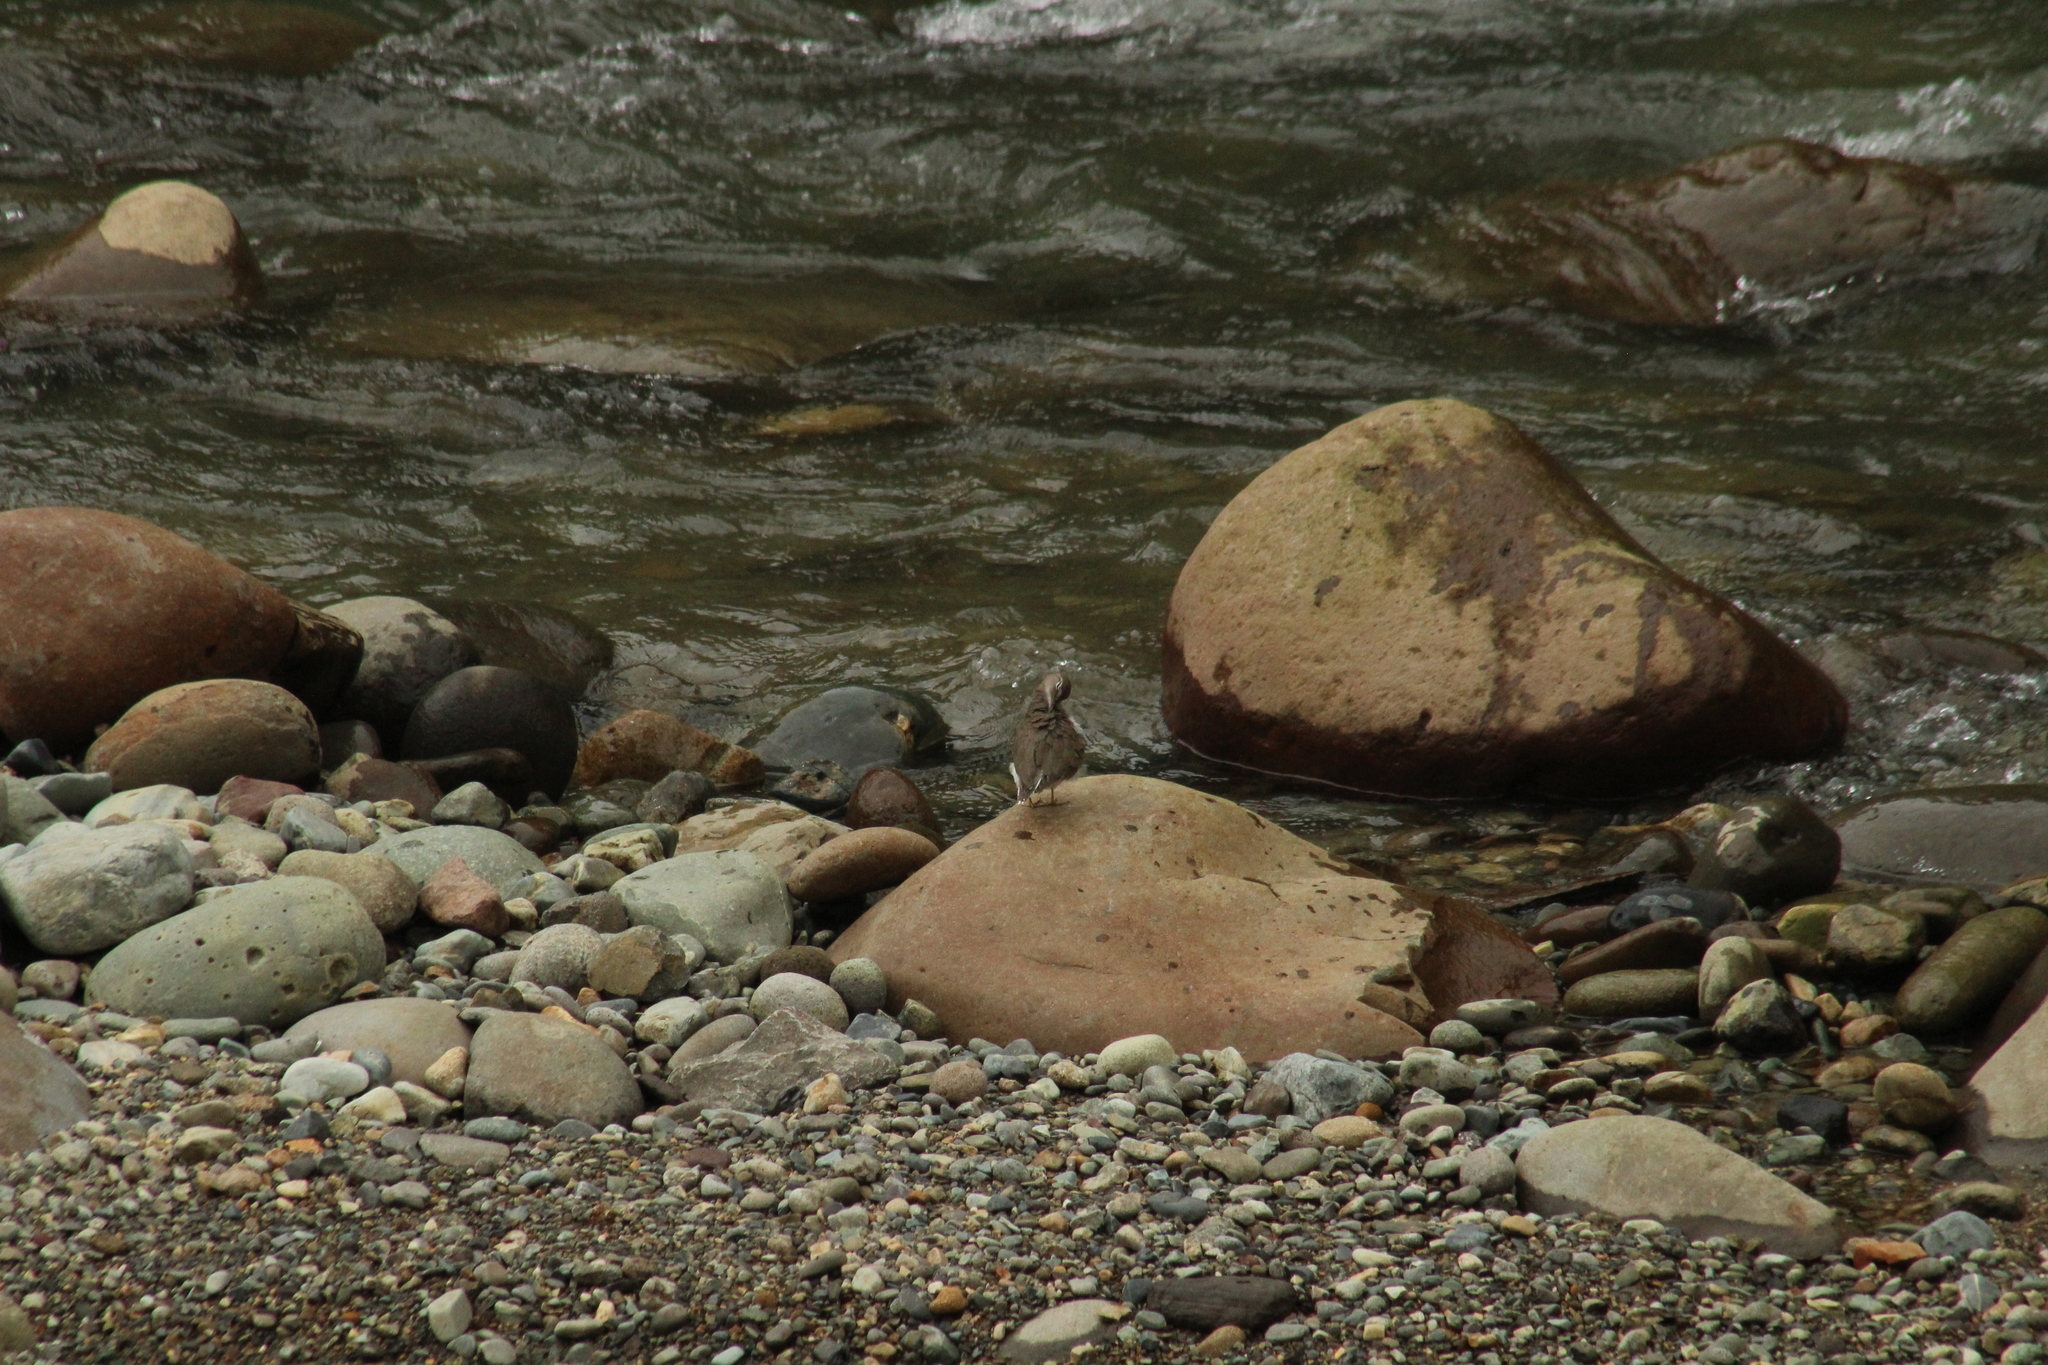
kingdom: Animalia
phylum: Chordata
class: Aves
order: Charadriiformes
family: Scolopacidae
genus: Actitis
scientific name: Actitis macularius
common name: Spotted sandpiper
